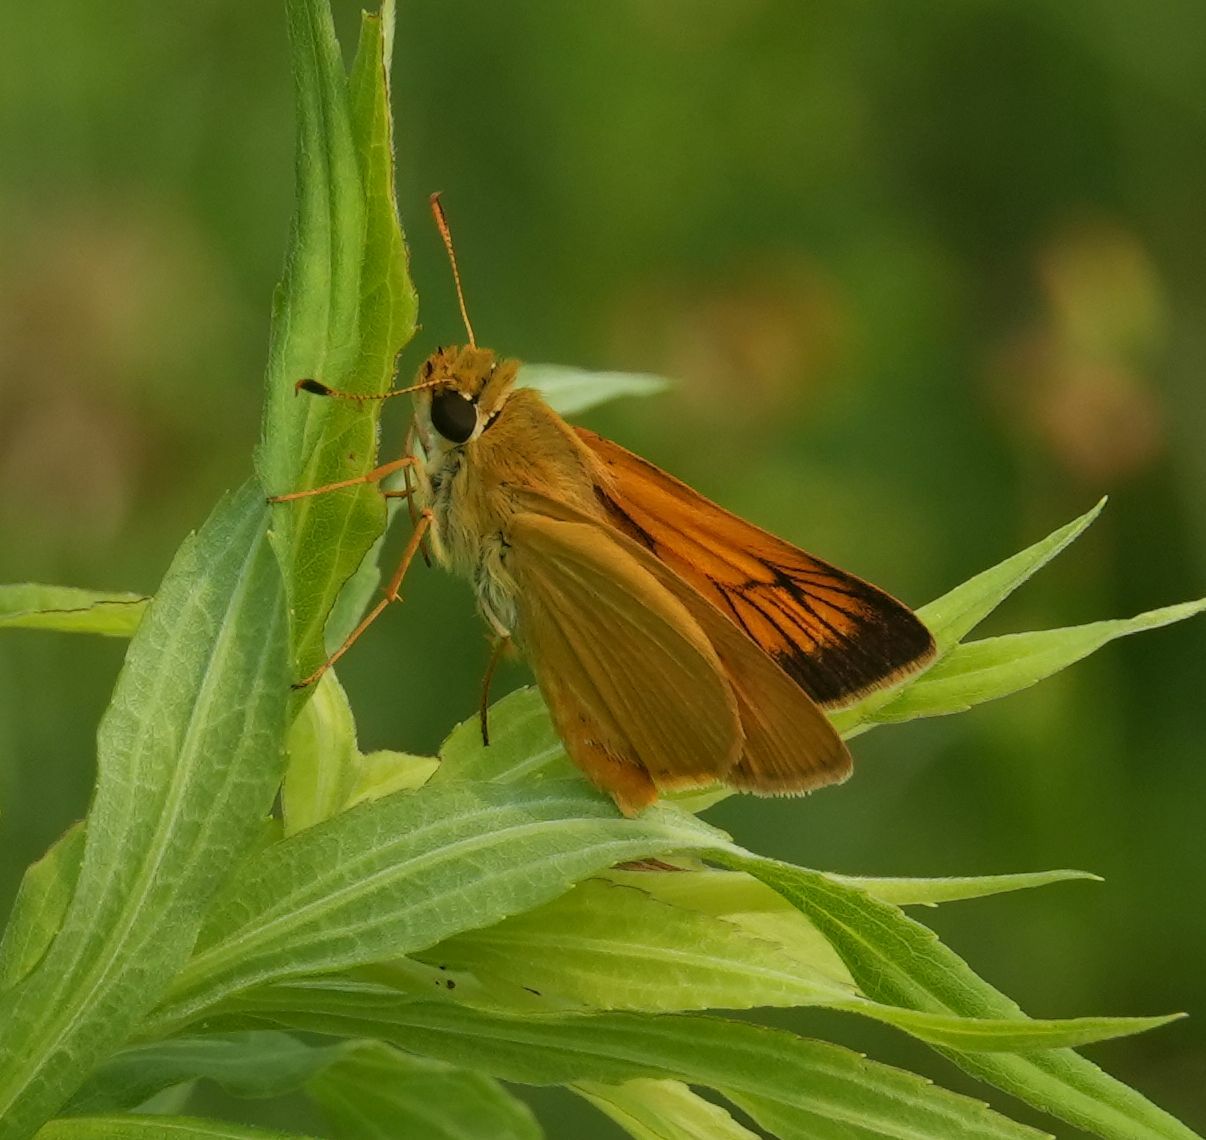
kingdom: Animalia
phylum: Arthropoda
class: Insecta
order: Lepidoptera
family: Hesperiidae
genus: Atrytone
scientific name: Atrytone delaware
